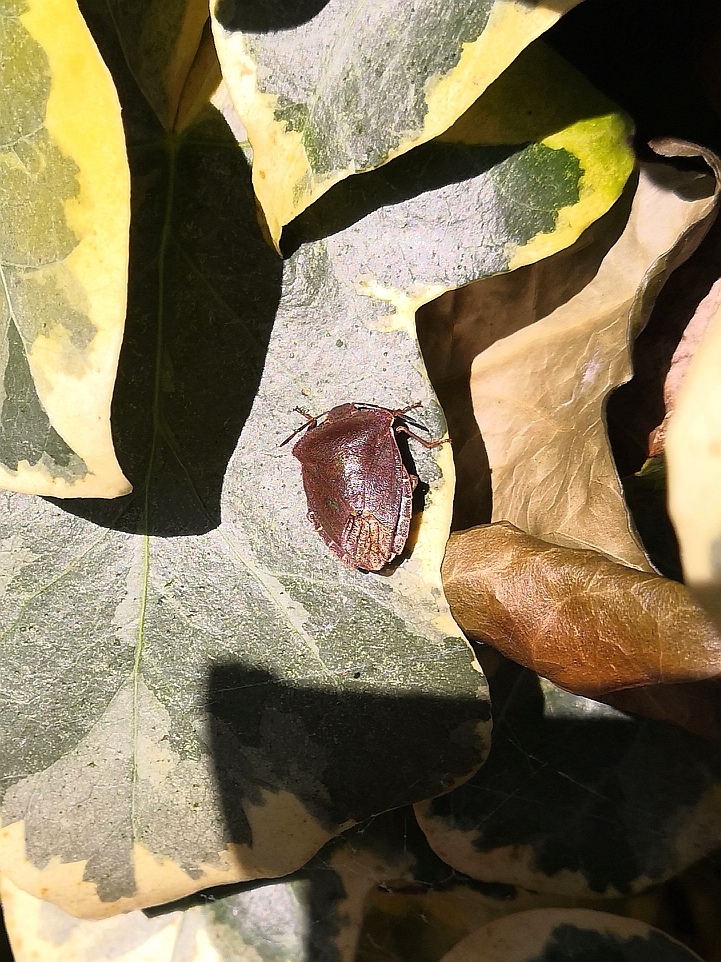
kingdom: Animalia
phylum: Arthropoda
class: Insecta
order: Hemiptera
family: Pentatomidae
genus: Palomena
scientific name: Palomena prasina
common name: Green shieldbug
